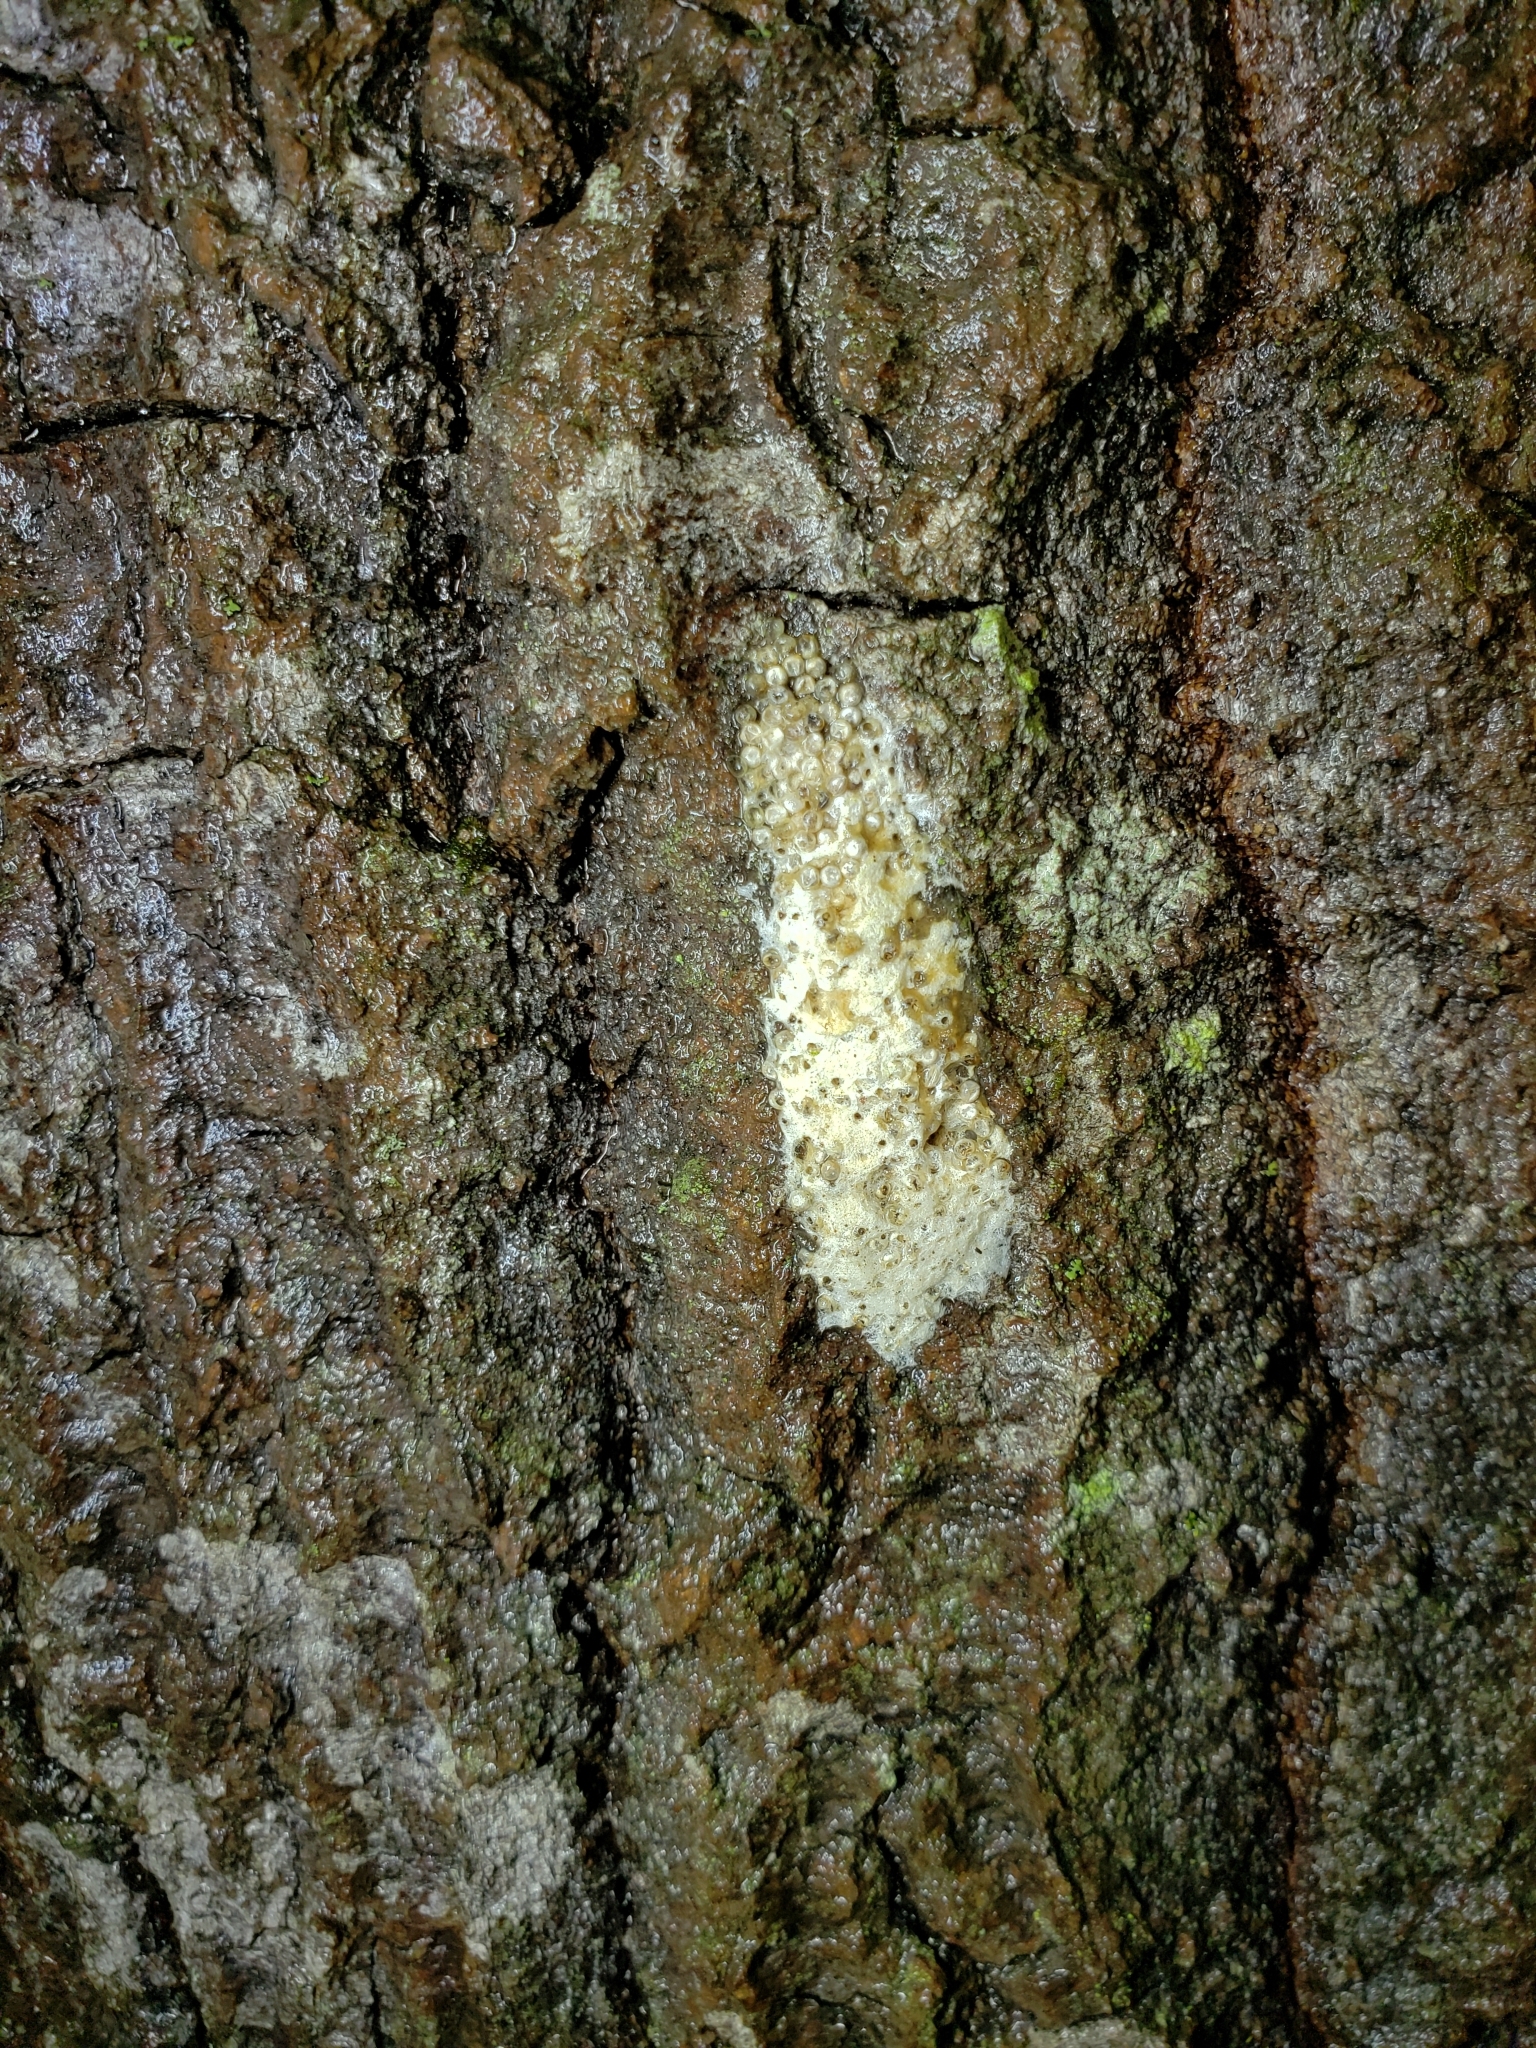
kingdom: Animalia
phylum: Arthropoda
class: Insecta
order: Lepidoptera
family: Erebidae
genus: Lymantria
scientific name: Lymantria dispar
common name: Gypsy moth
